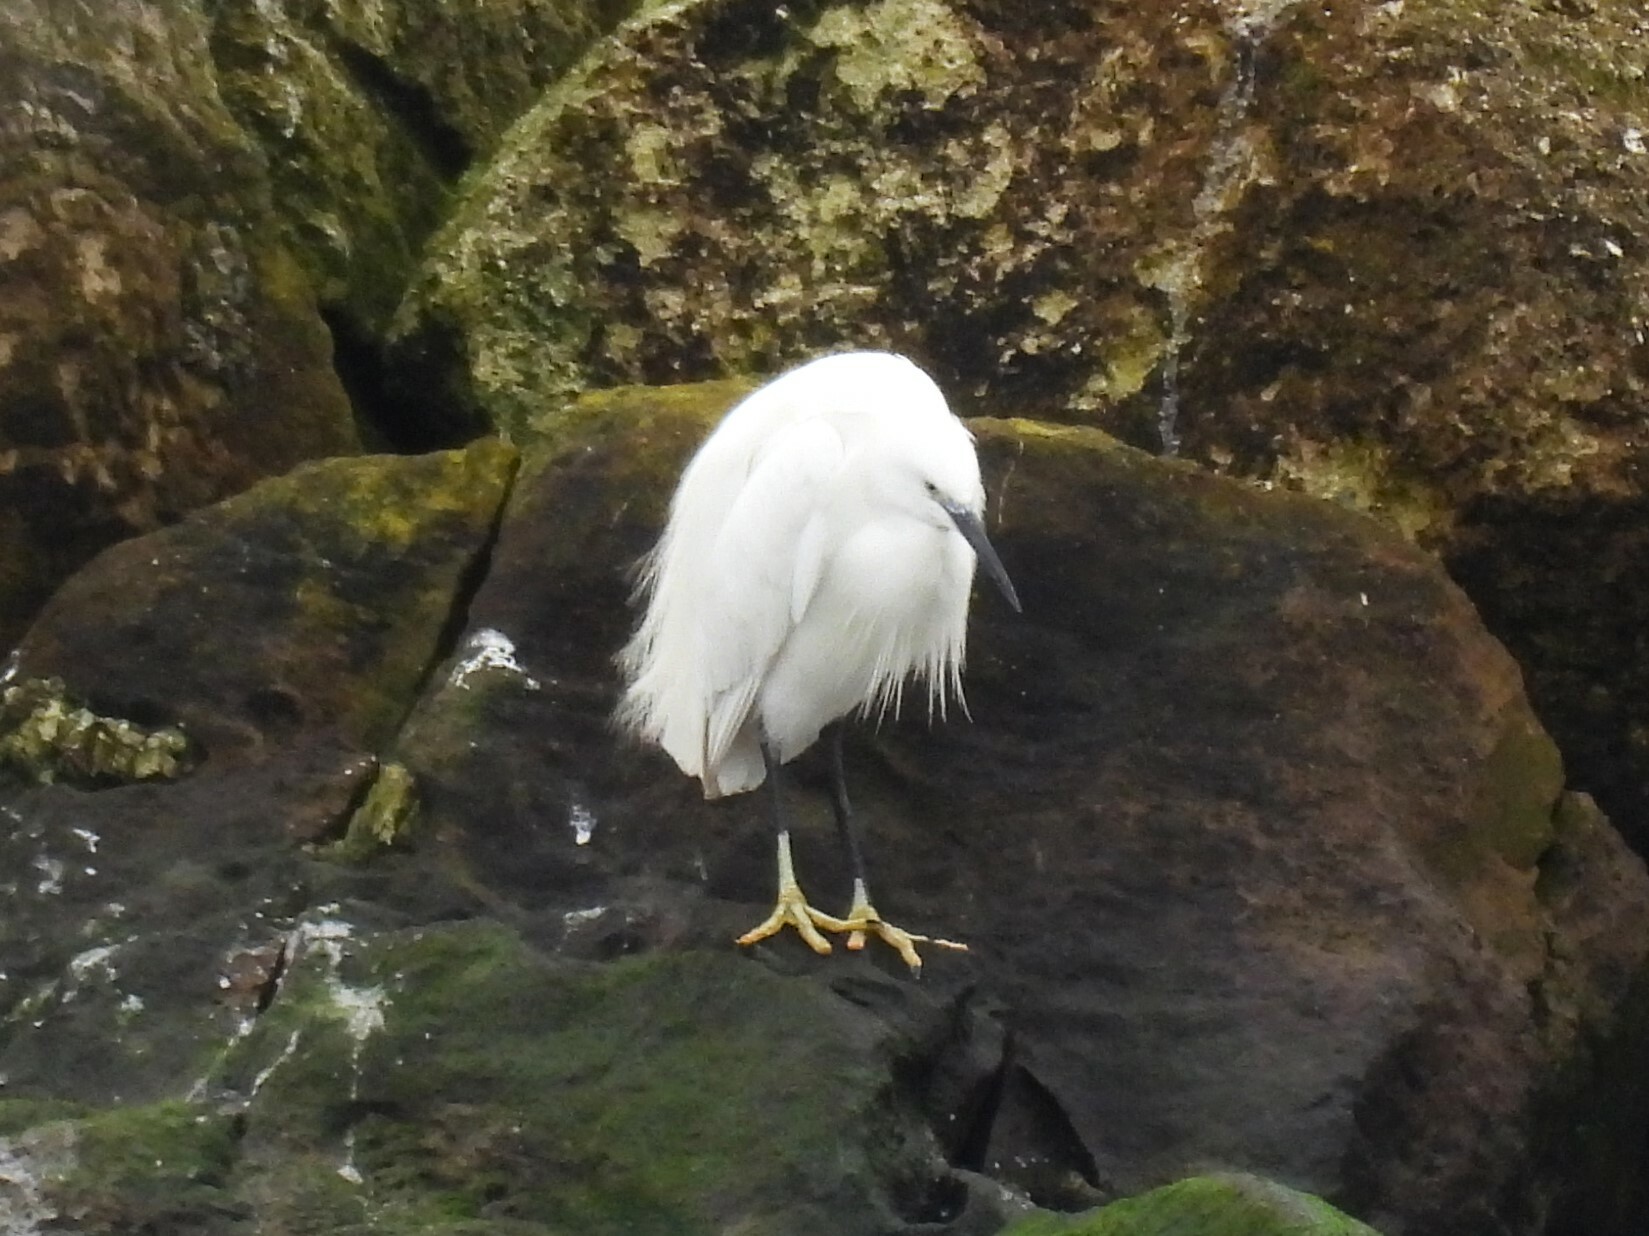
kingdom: Animalia
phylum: Chordata
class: Aves
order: Pelecaniformes
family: Ardeidae
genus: Egretta
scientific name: Egretta garzetta
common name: Little egret
